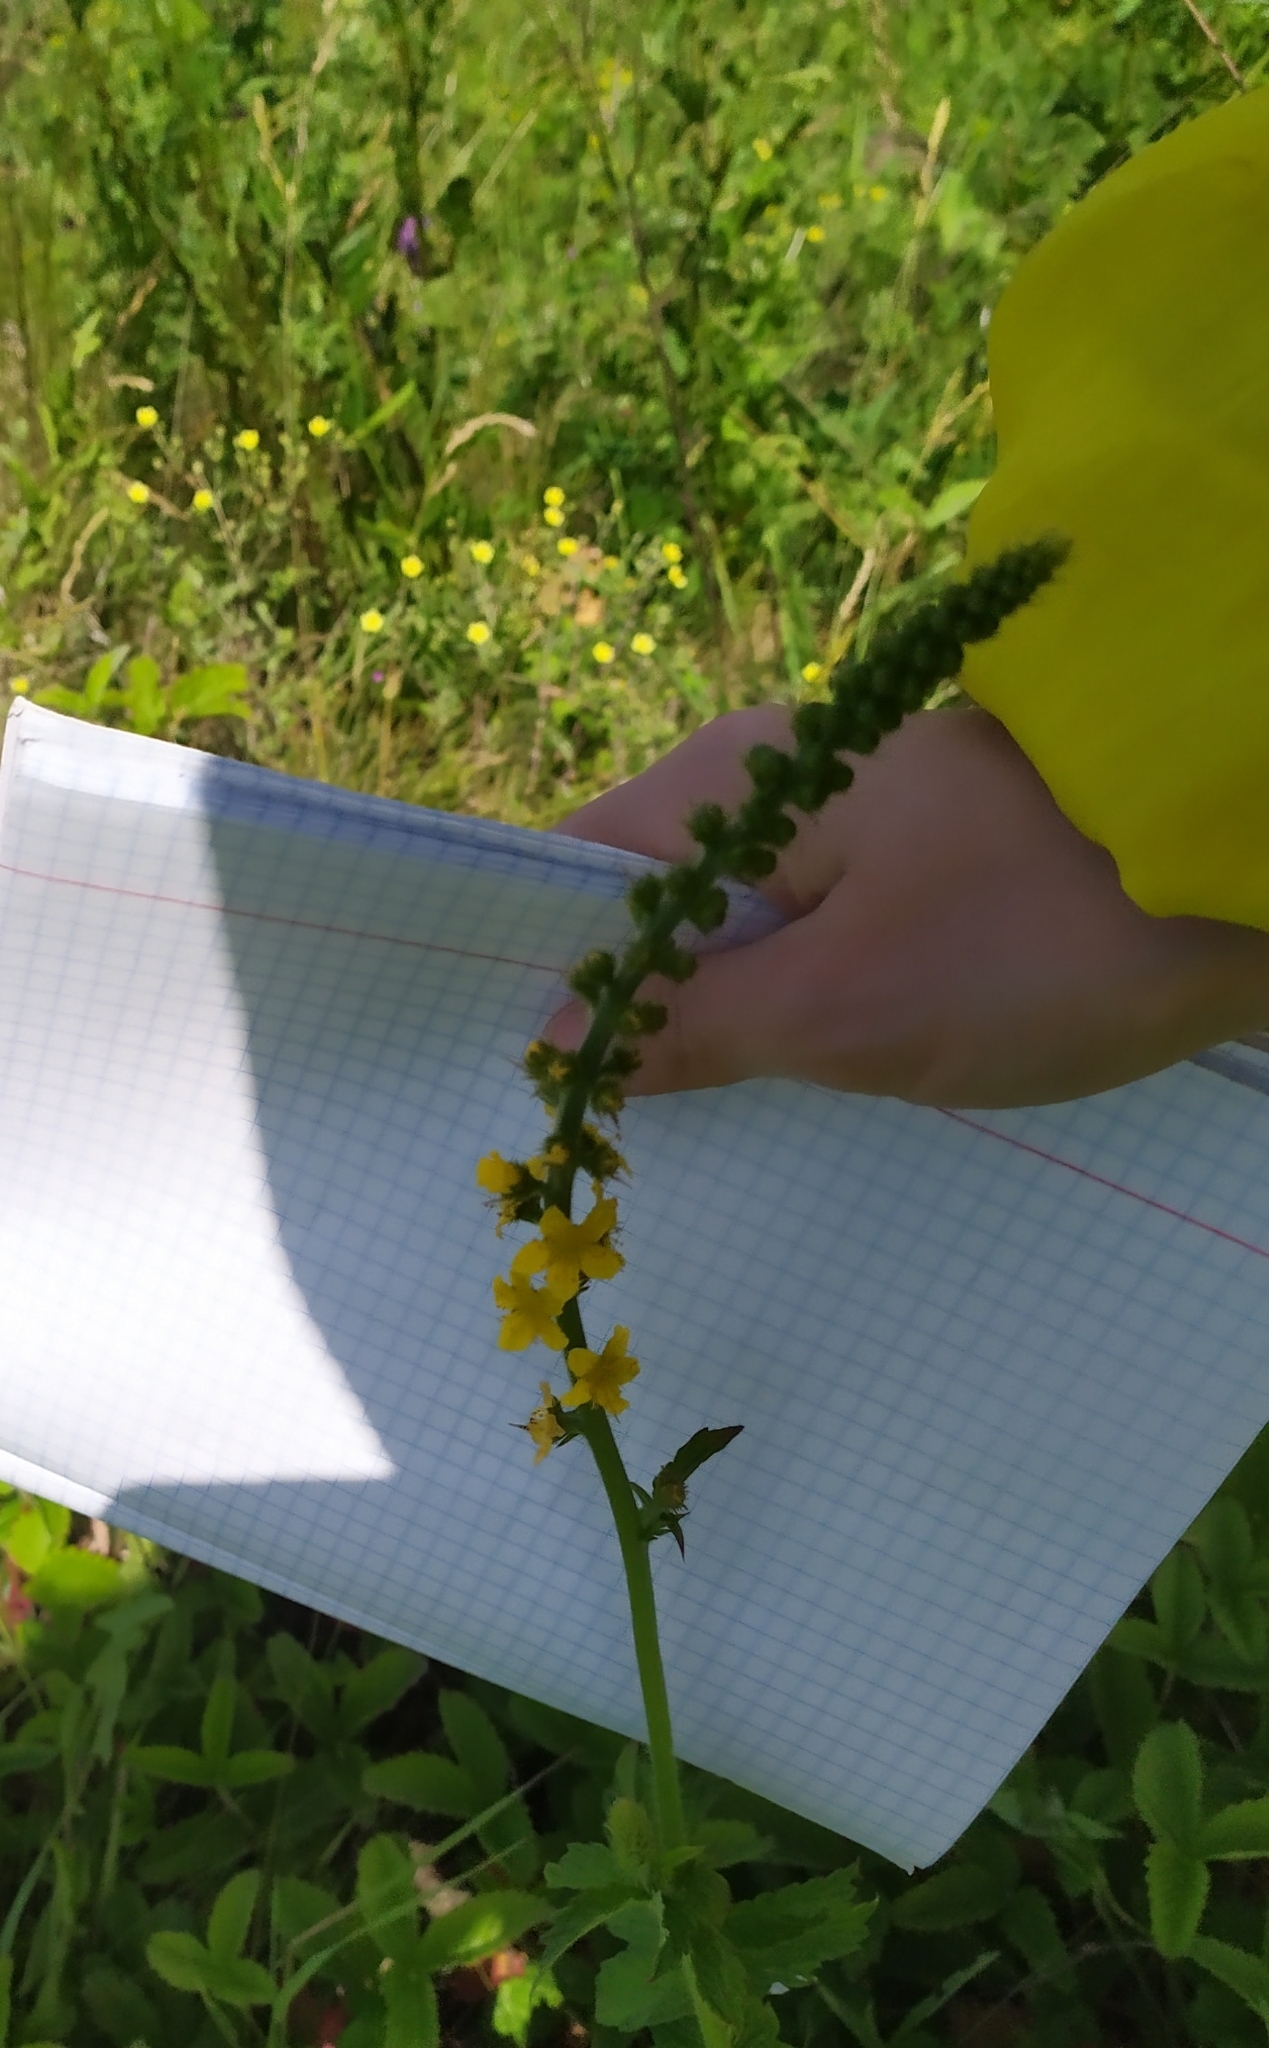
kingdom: Plantae
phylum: Tracheophyta
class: Magnoliopsida
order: Rosales
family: Rosaceae
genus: Agrimonia
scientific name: Agrimonia eupatoria
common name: Agrimony
